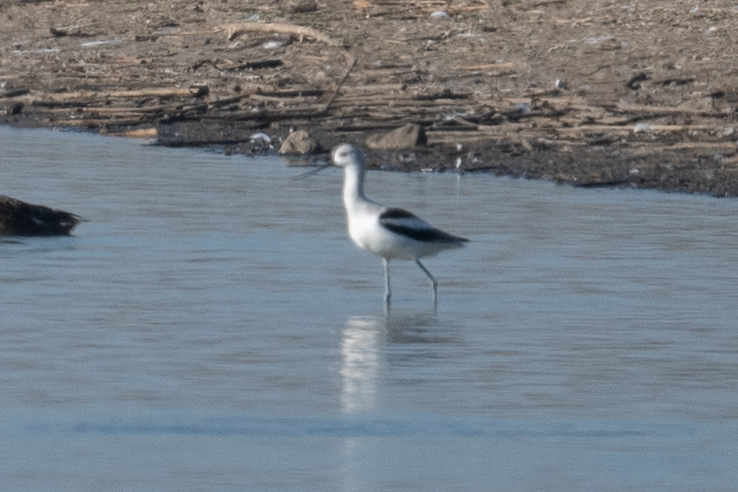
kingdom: Animalia
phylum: Chordata
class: Aves
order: Charadriiformes
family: Recurvirostridae
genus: Recurvirostra
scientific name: Recurvirostra americana
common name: American avocet
